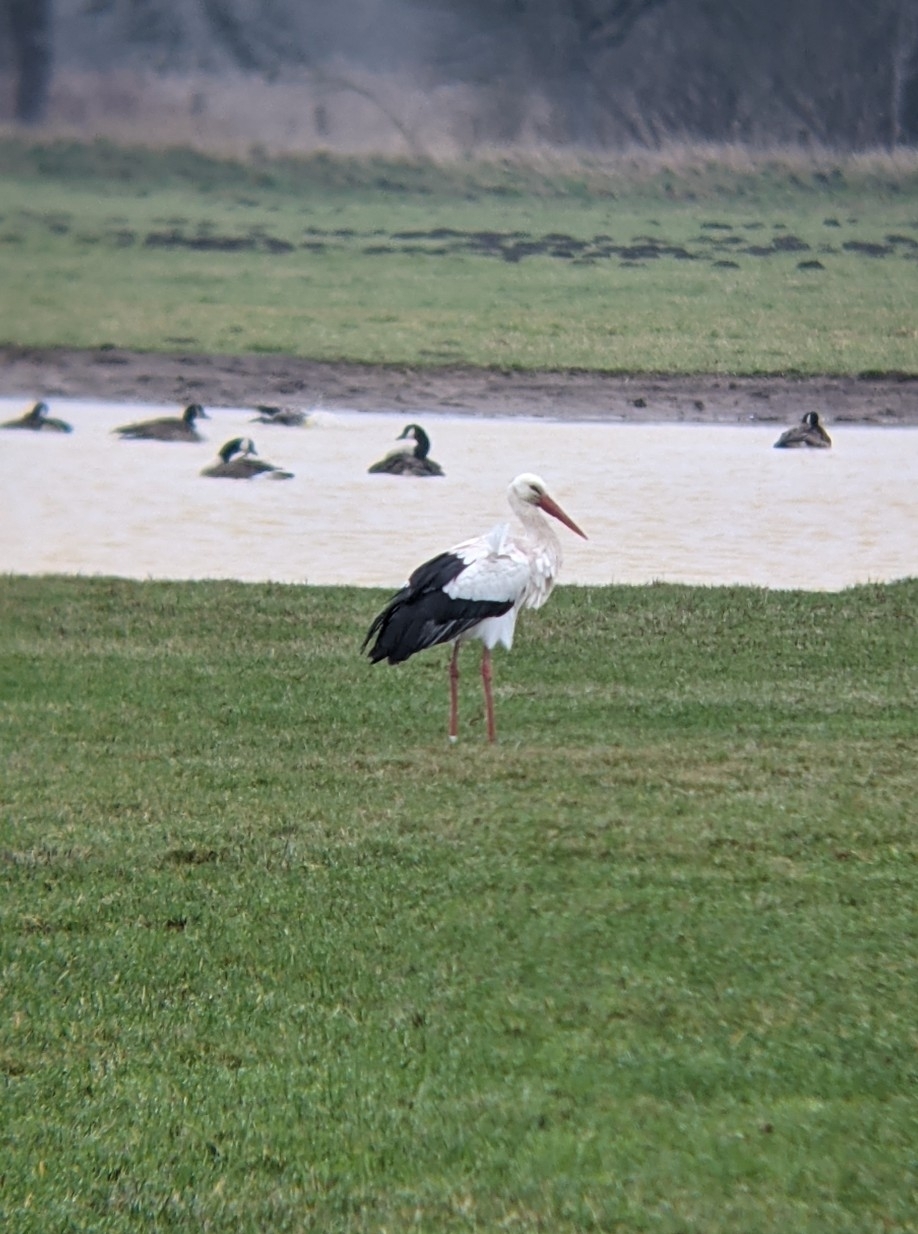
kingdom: Animalia
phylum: Chordata
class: Aves
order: Ciconiiformes
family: Ciconiidae
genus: Ciconia
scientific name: Ciconia ciconia
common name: White stork
